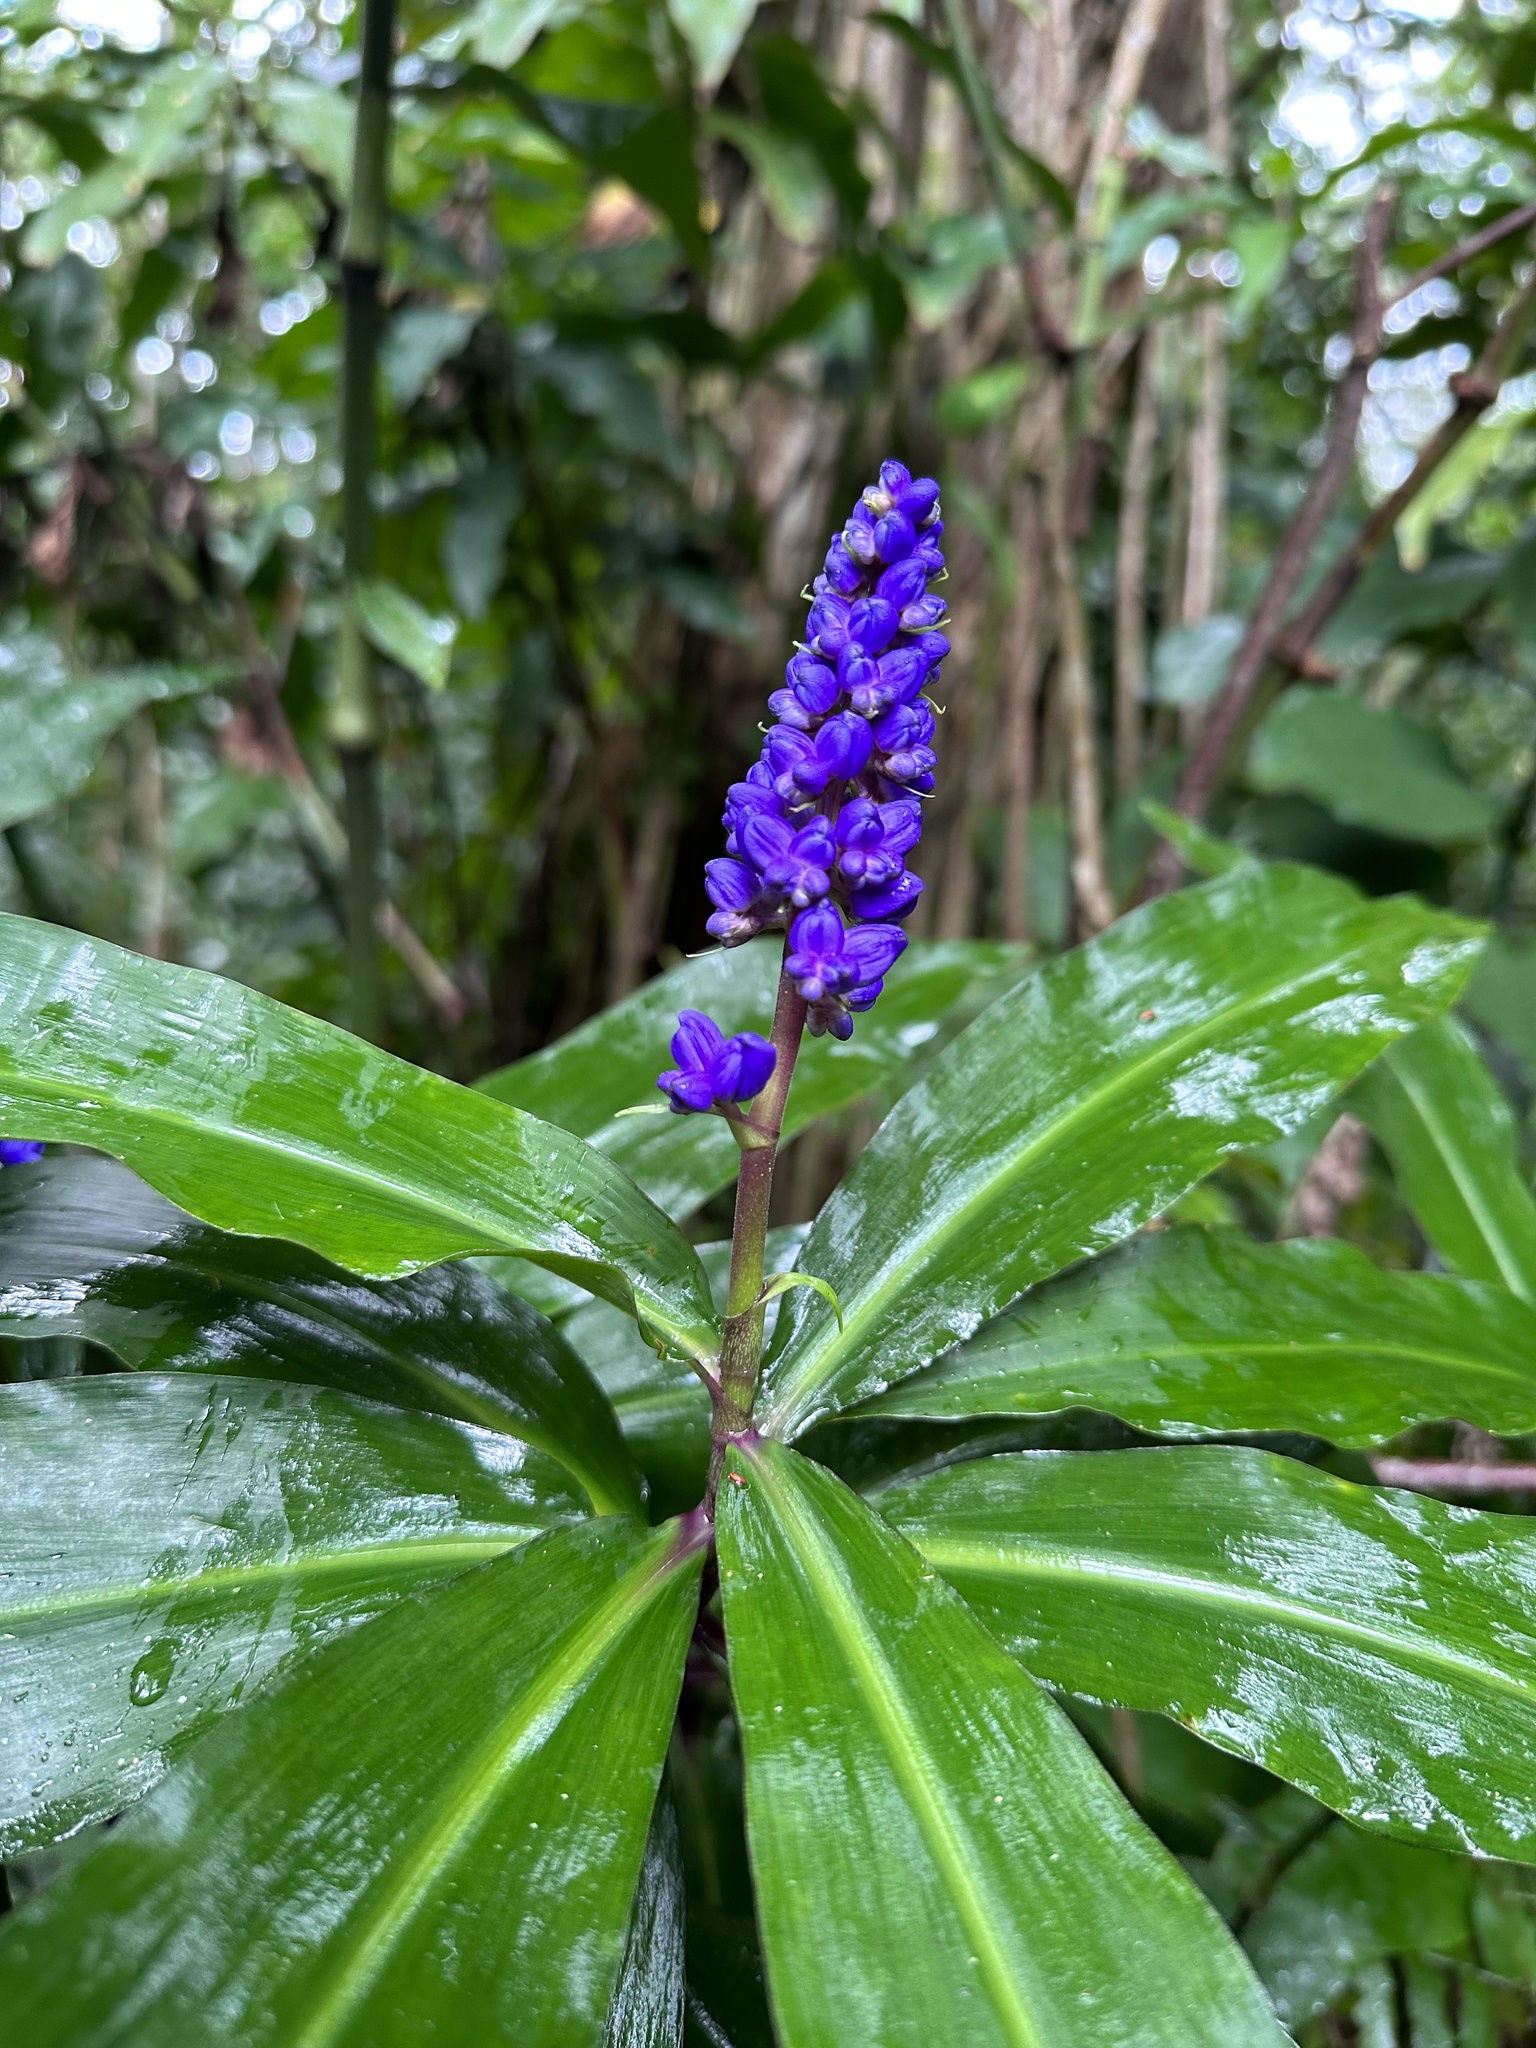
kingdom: Plantae
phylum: Tracheophyta
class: Liliopsida
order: Commelinales
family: Commelinaceae
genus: Dichorisandra
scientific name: Dichorisandra thyrsiflora
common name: Blue-ginger
